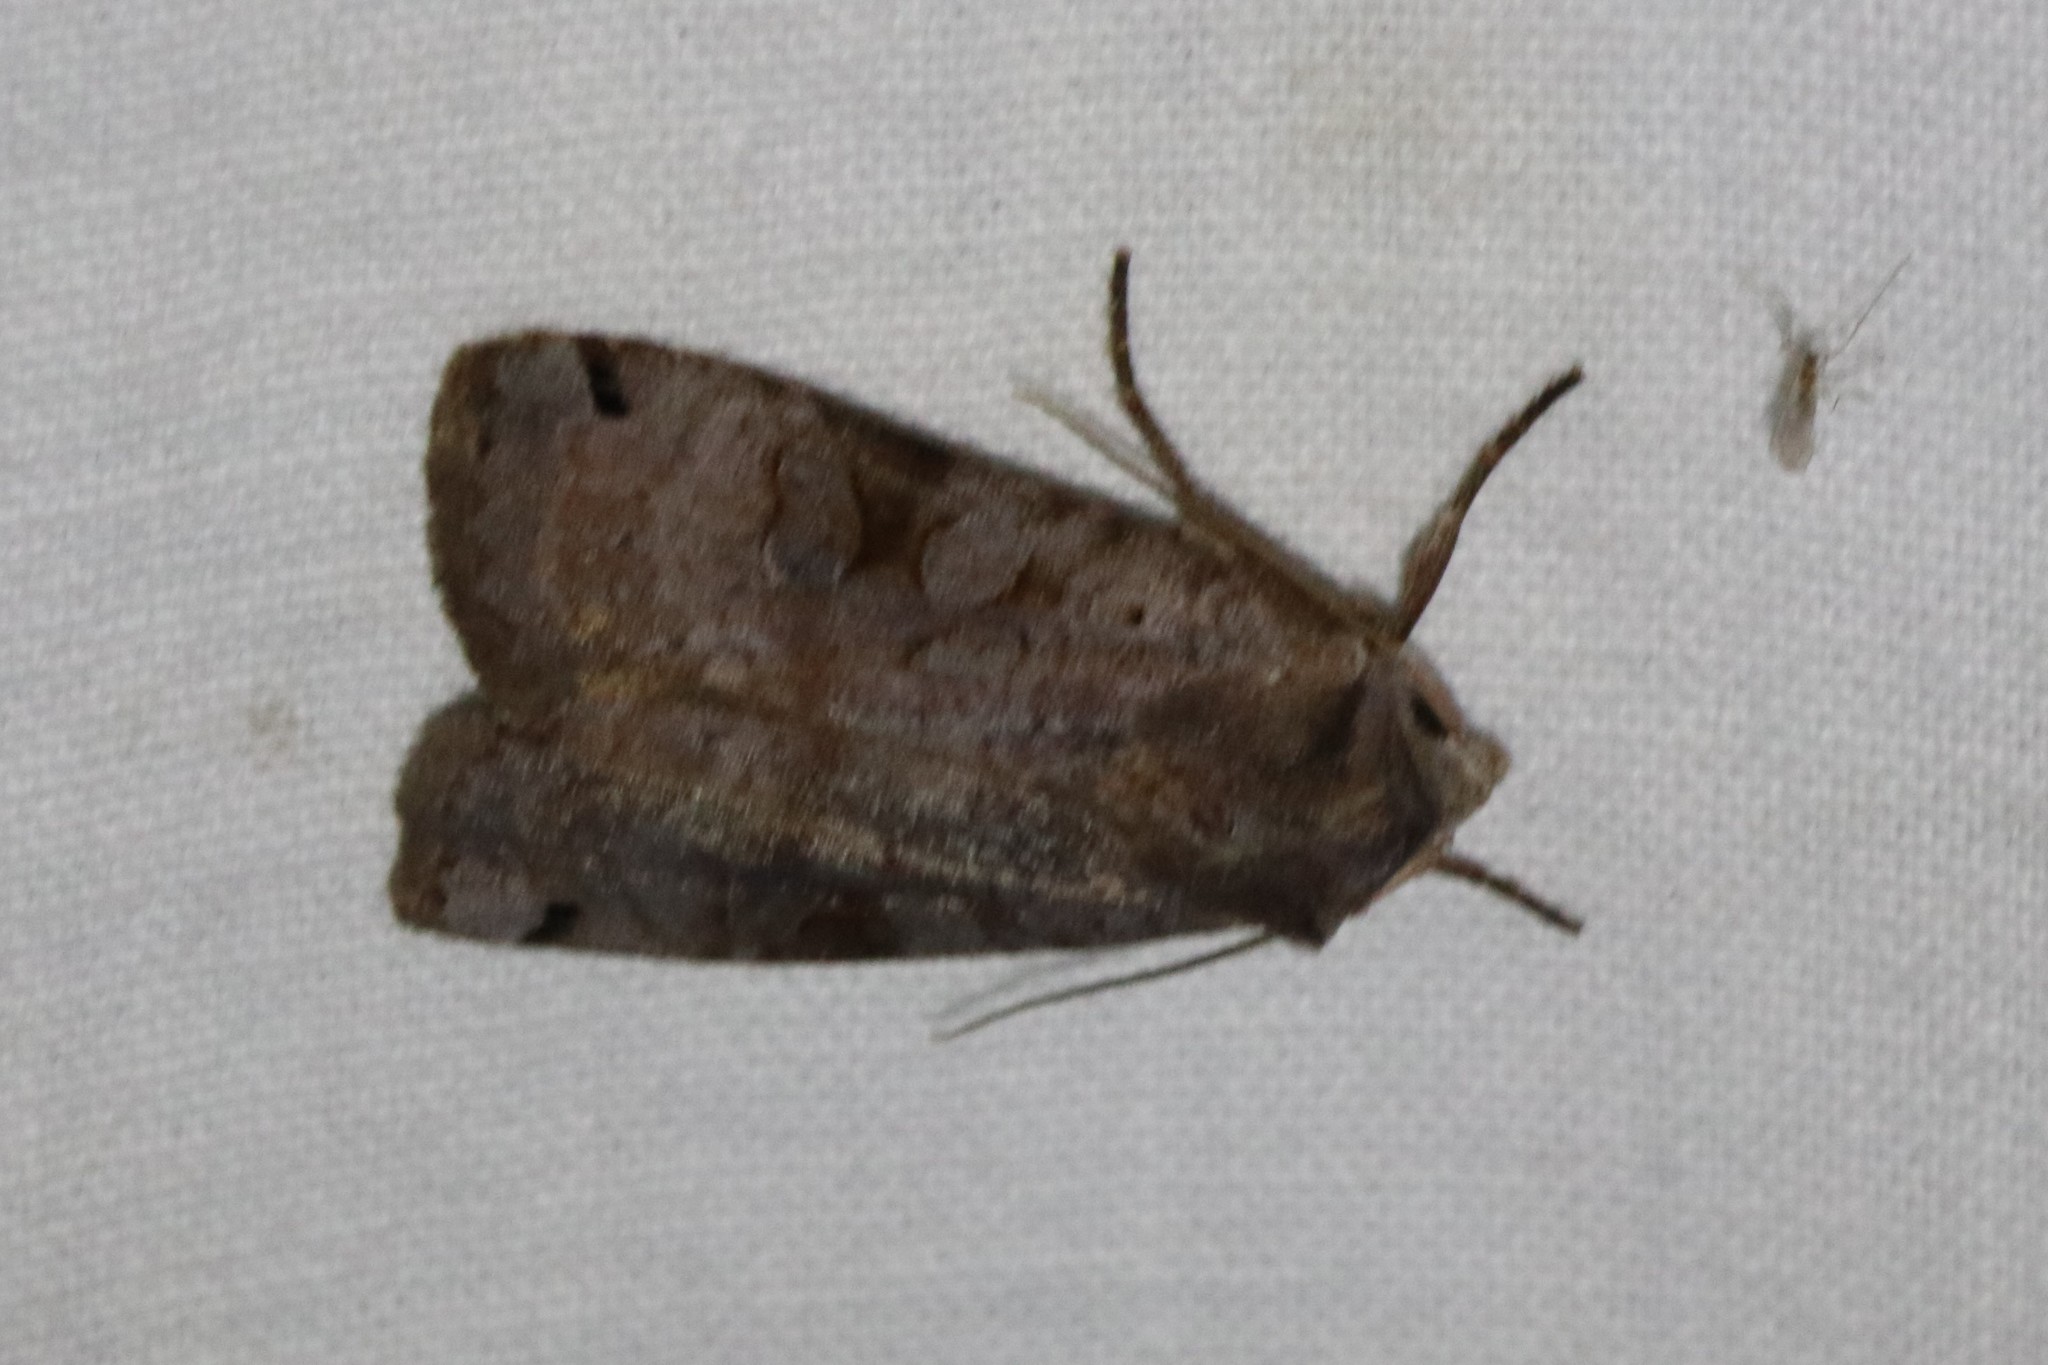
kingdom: Animalia
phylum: Arthropoda
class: Insecta
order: Lepidoptera
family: Noctuidae
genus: Xestia
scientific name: Xestia smithii
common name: Smith's dart
